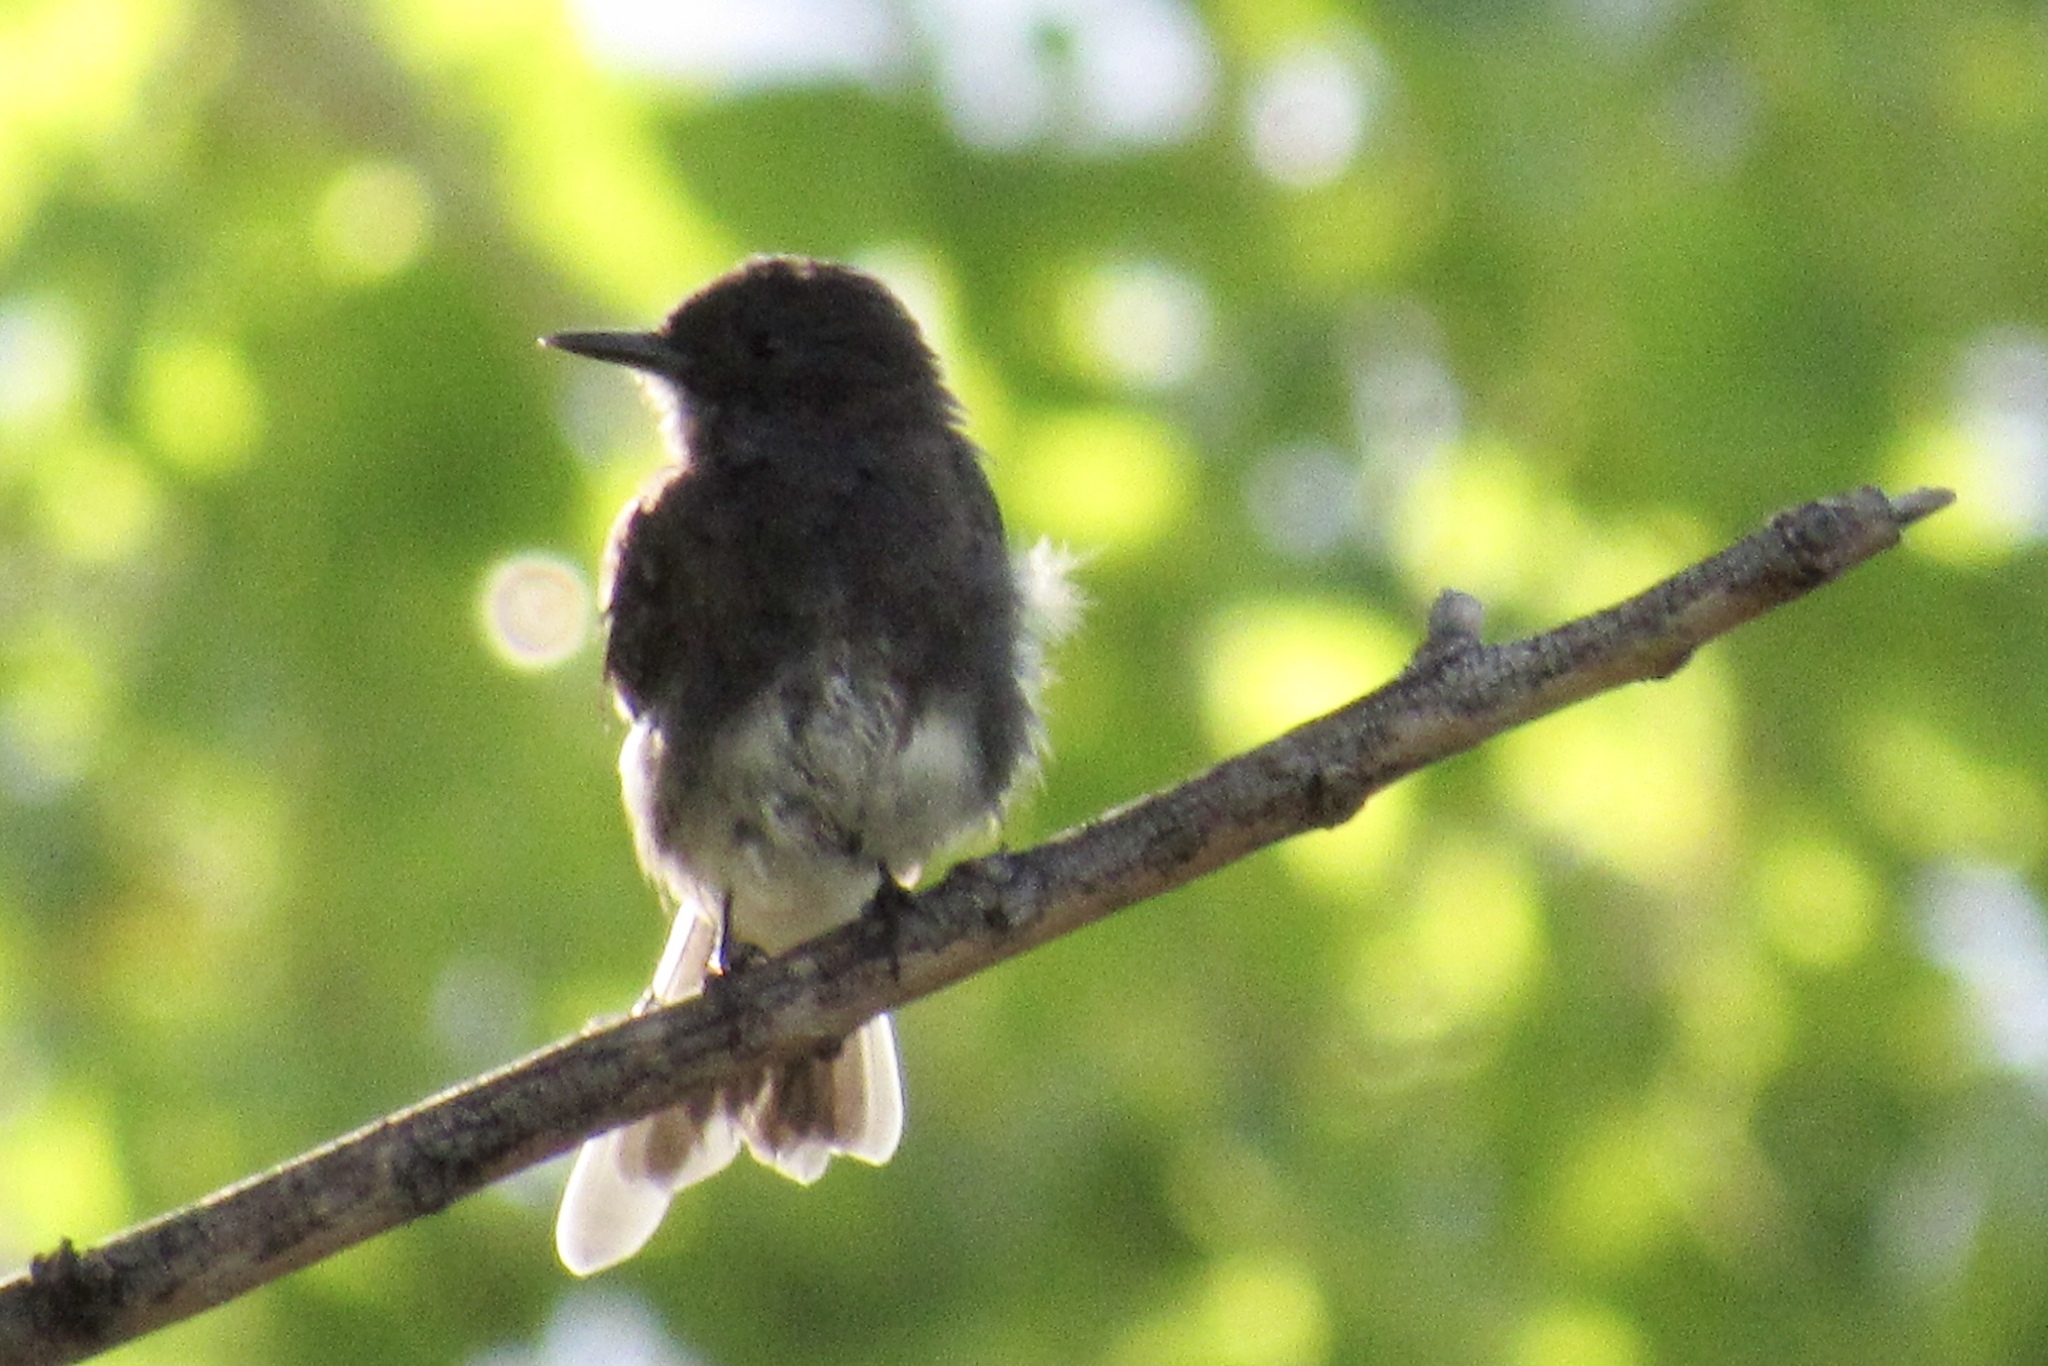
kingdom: Animalia
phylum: Chordata
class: Aves
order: Passeriformes
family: Tyrannidae
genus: Sayornis
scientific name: Sayornis nigricans
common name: Black phoebe
